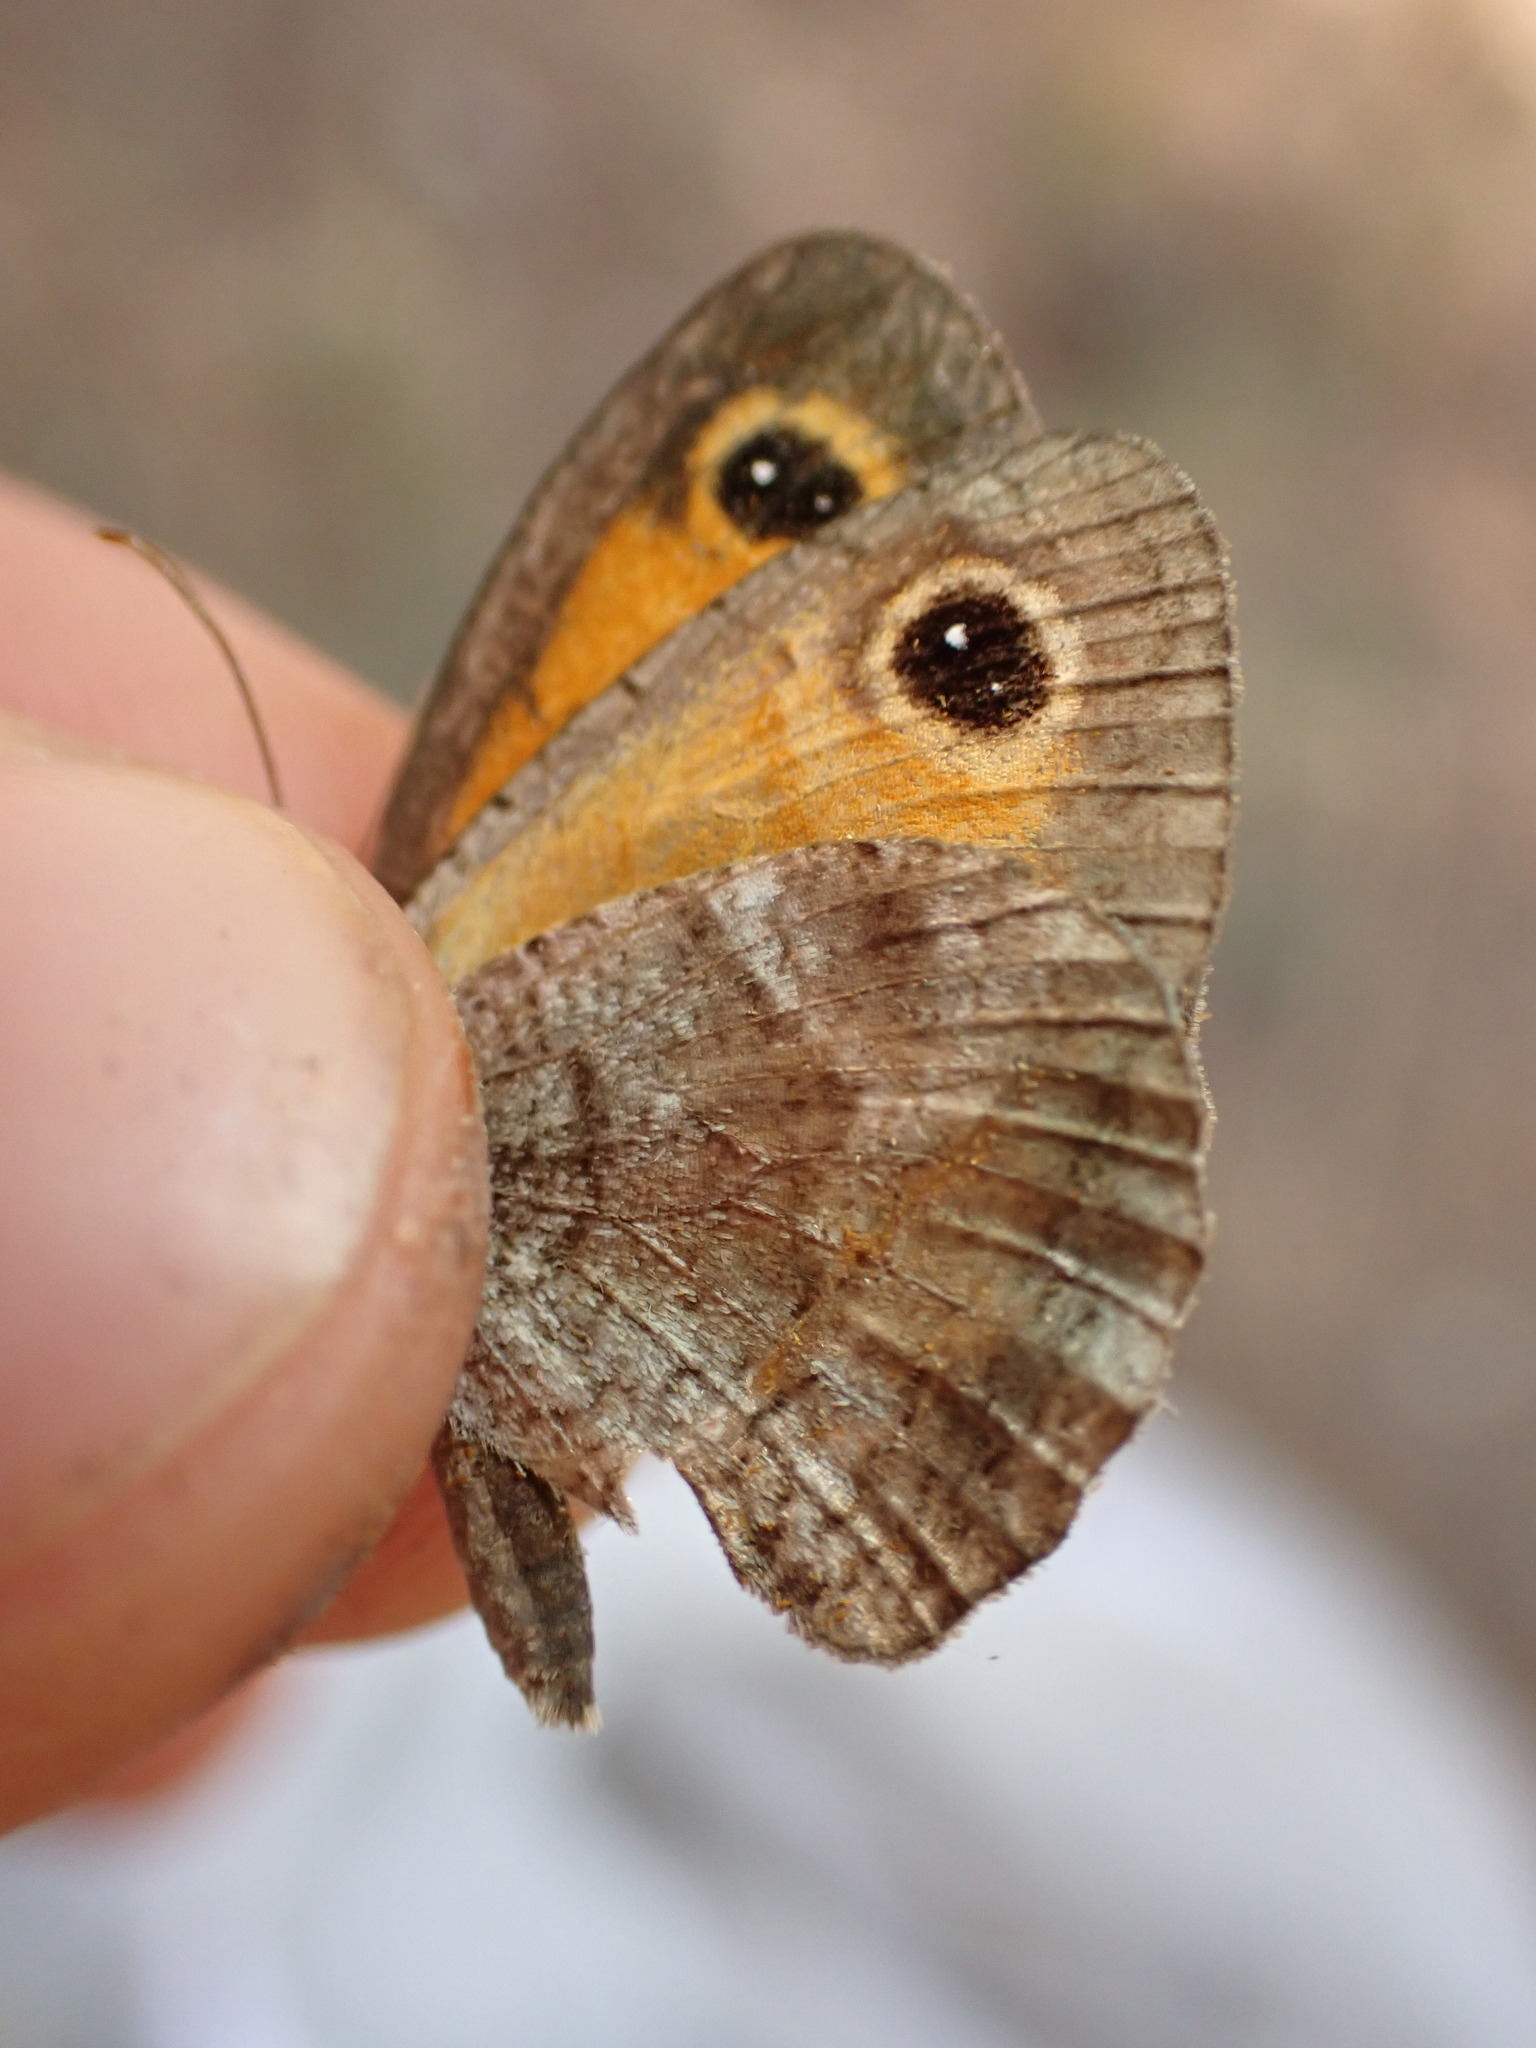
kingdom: Animalia
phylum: Arthropoda
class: Insecta
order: Lepidoptera
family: Nymphalidae
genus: Pyronia
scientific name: Pyronia cecilia
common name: Southern gatekeeper
